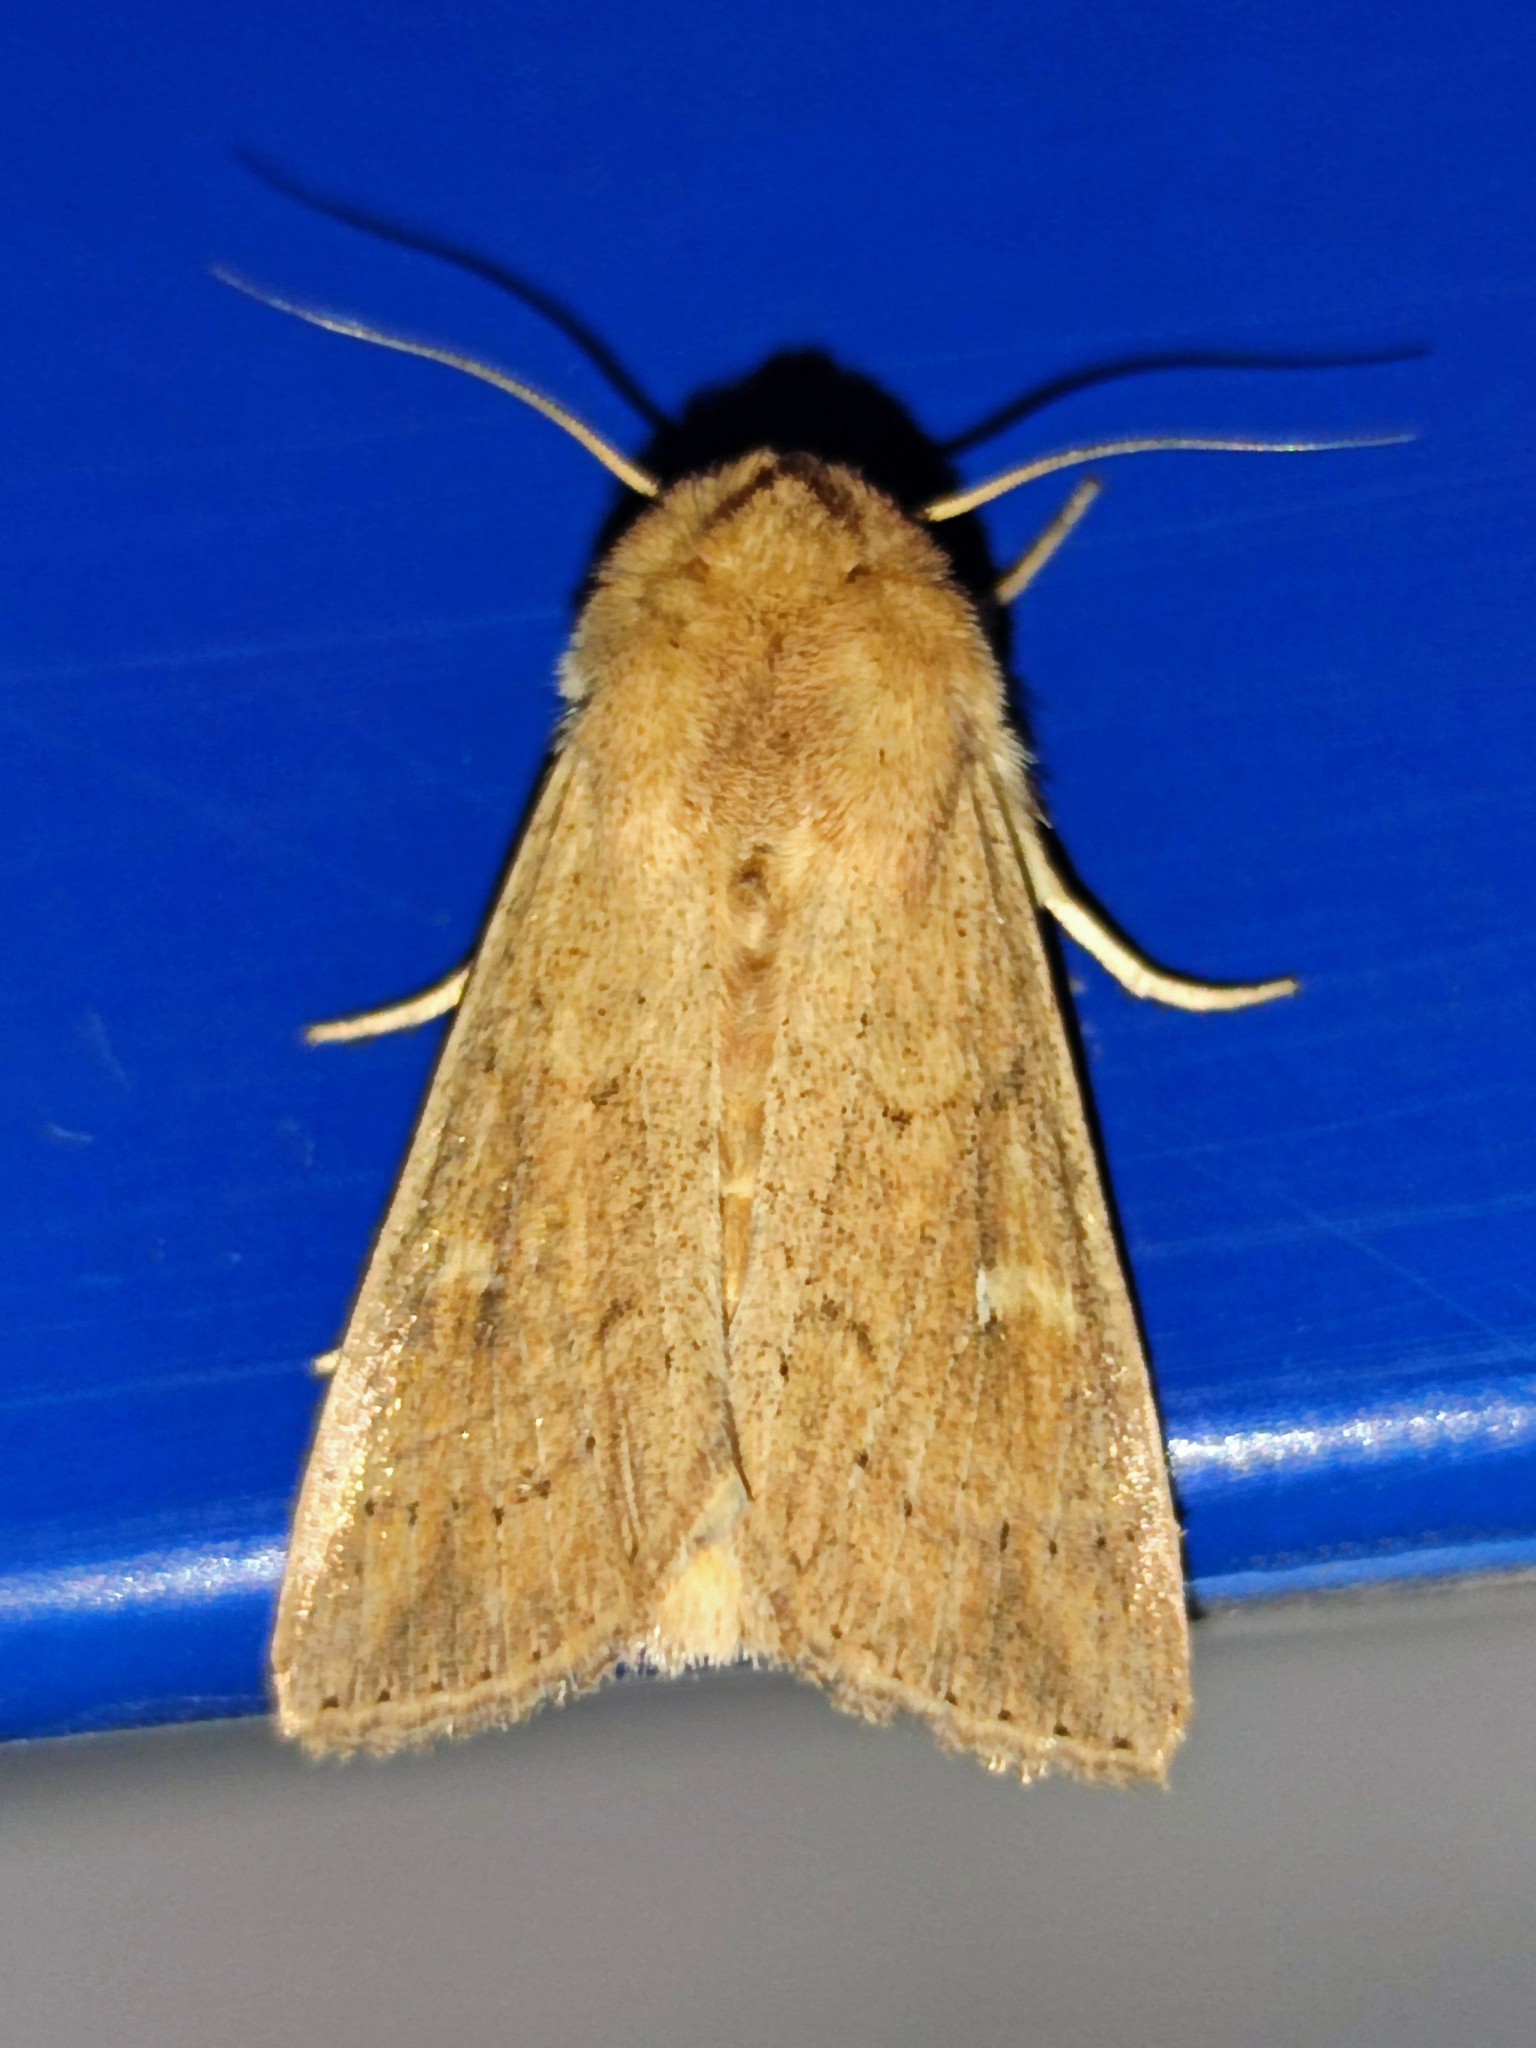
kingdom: Animalia
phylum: Arthropoda
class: Insecta
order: Lepidoptera
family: Noctuidae
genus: Mythimna
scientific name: Mythimna ferrago
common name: Clay
